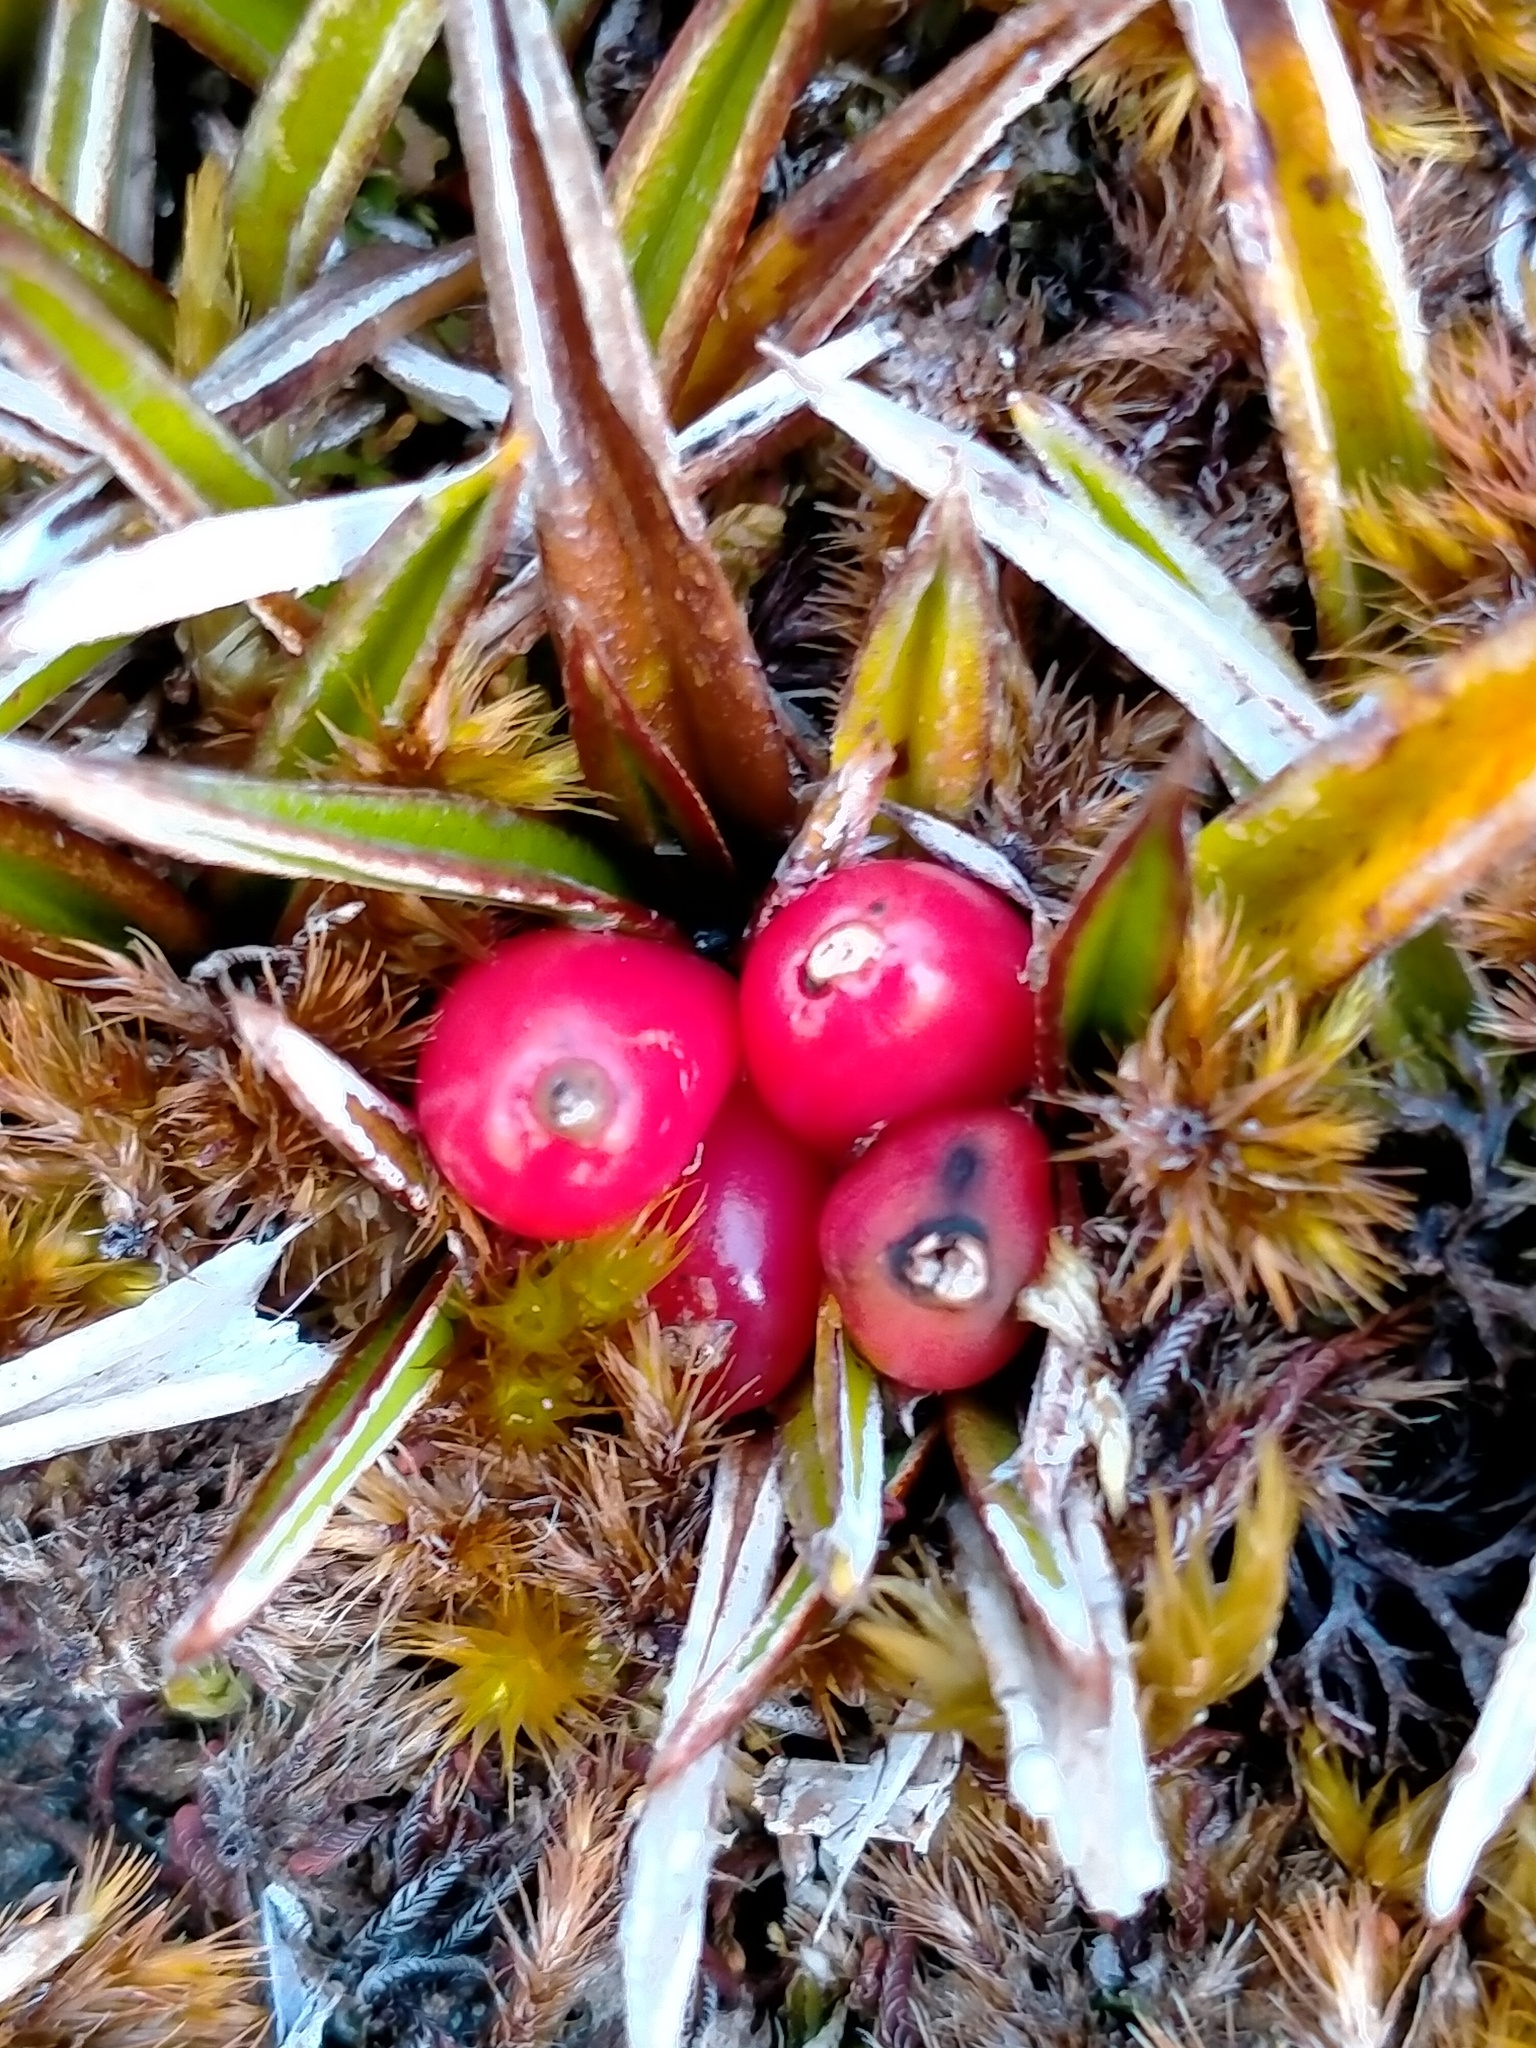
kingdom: Plantae
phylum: Tracheophyta
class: Liliopsida
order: Asparagales
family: Asteliaceae
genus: Astelia
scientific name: Astelia linearis
